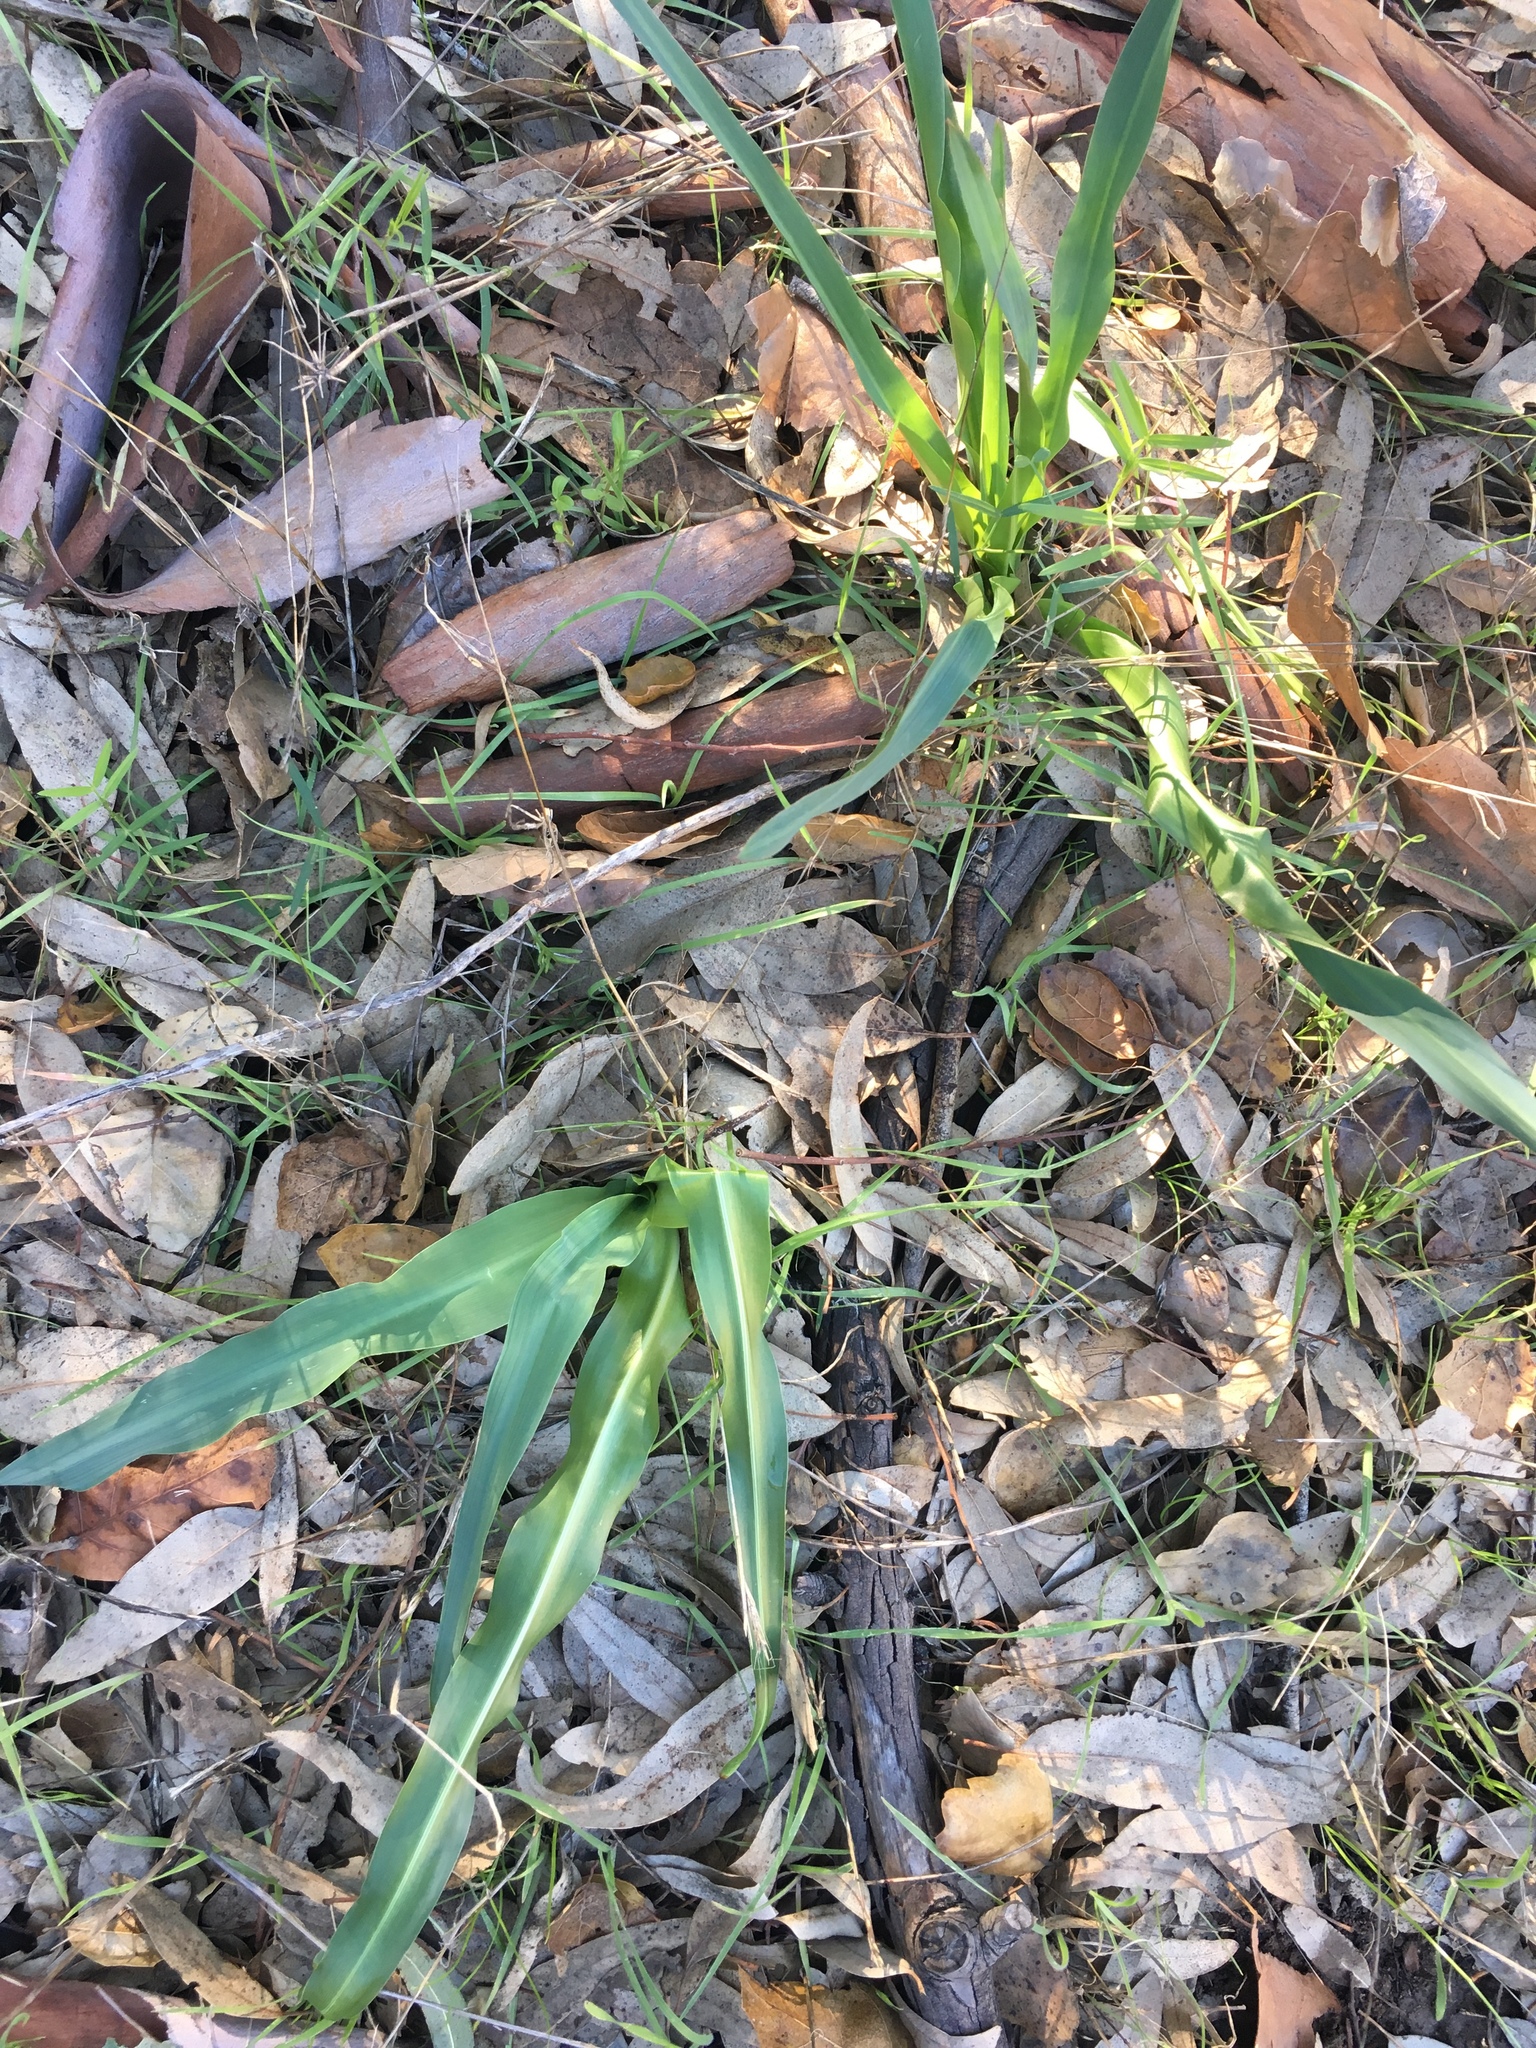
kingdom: Plantae
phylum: Tracheophyta
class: Liliopsida
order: Asparagales
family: Asparagaceae
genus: Chlorogalum
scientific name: Chlorogalum pomeridianum
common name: Amole
